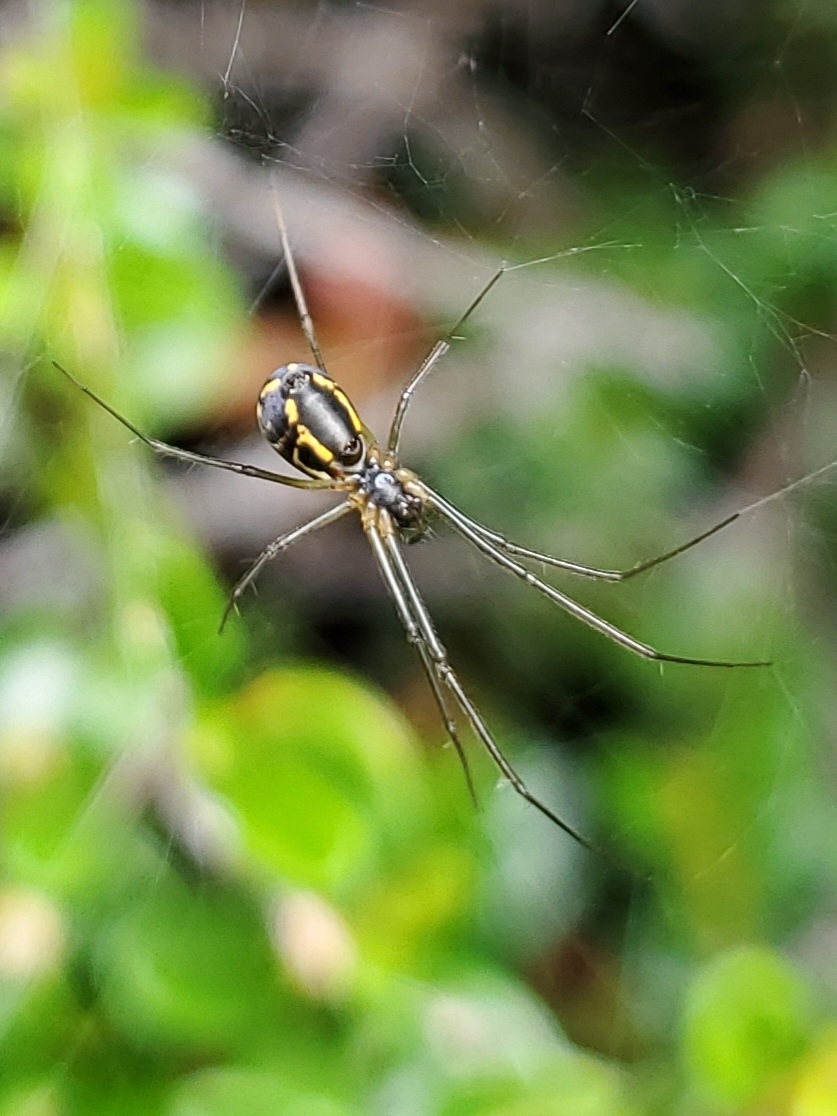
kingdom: Animalia
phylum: Arthropoda
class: Arachnida
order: Araneae
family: Linyphiidae
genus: Neriene
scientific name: Neriene radiata
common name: Filmy dome spider
